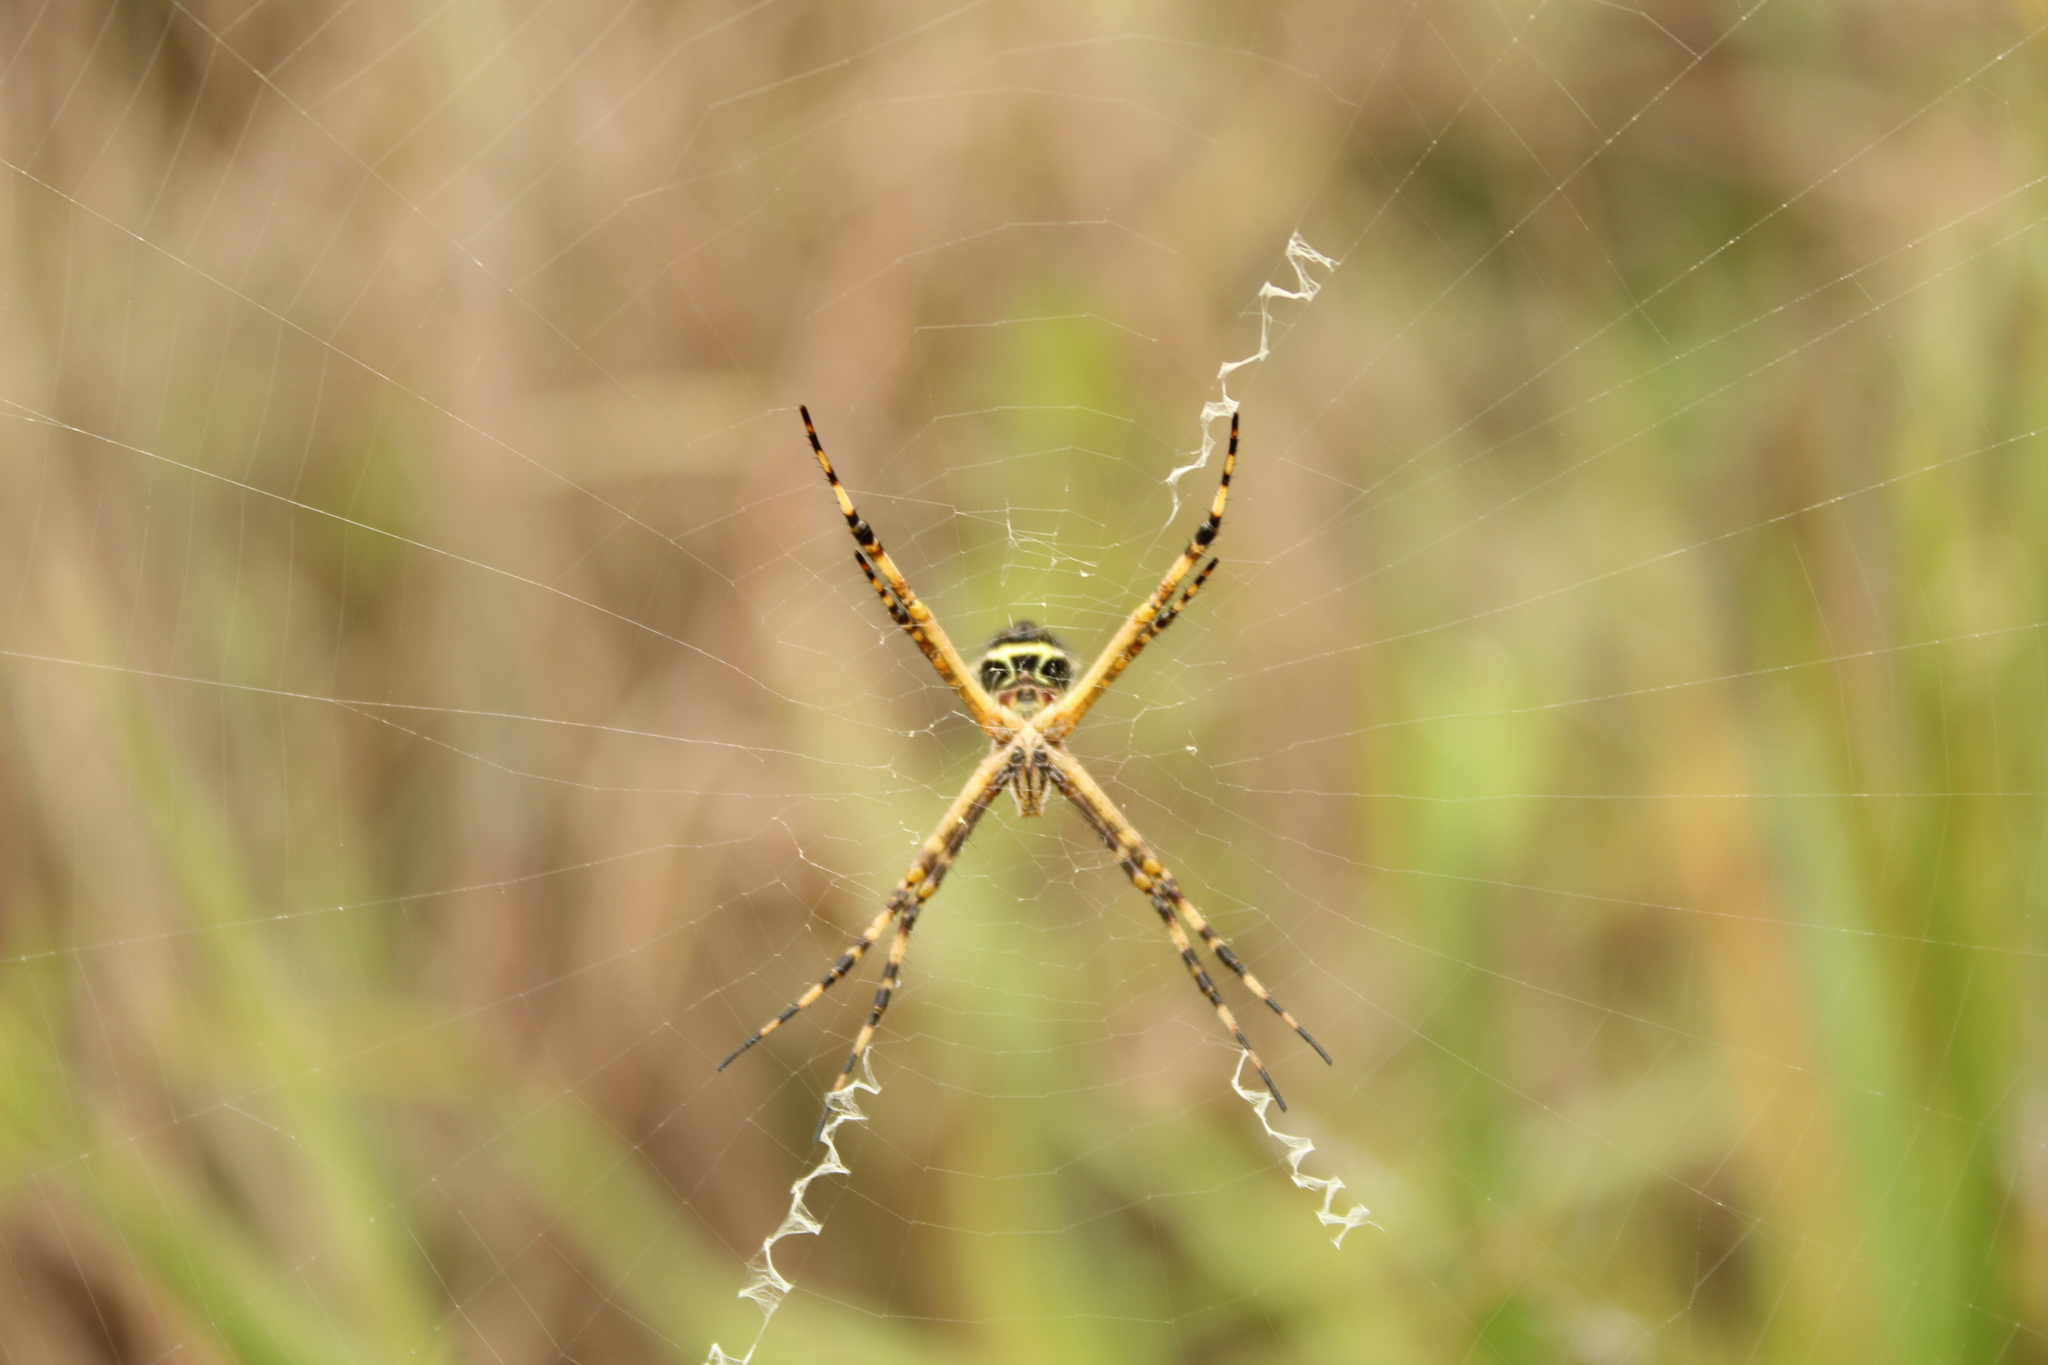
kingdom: Animalia
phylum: Arthropoda
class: Arachnida
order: Araneae
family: Araneidae
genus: Argiope
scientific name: Argiope argentata
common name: Orb weavers
